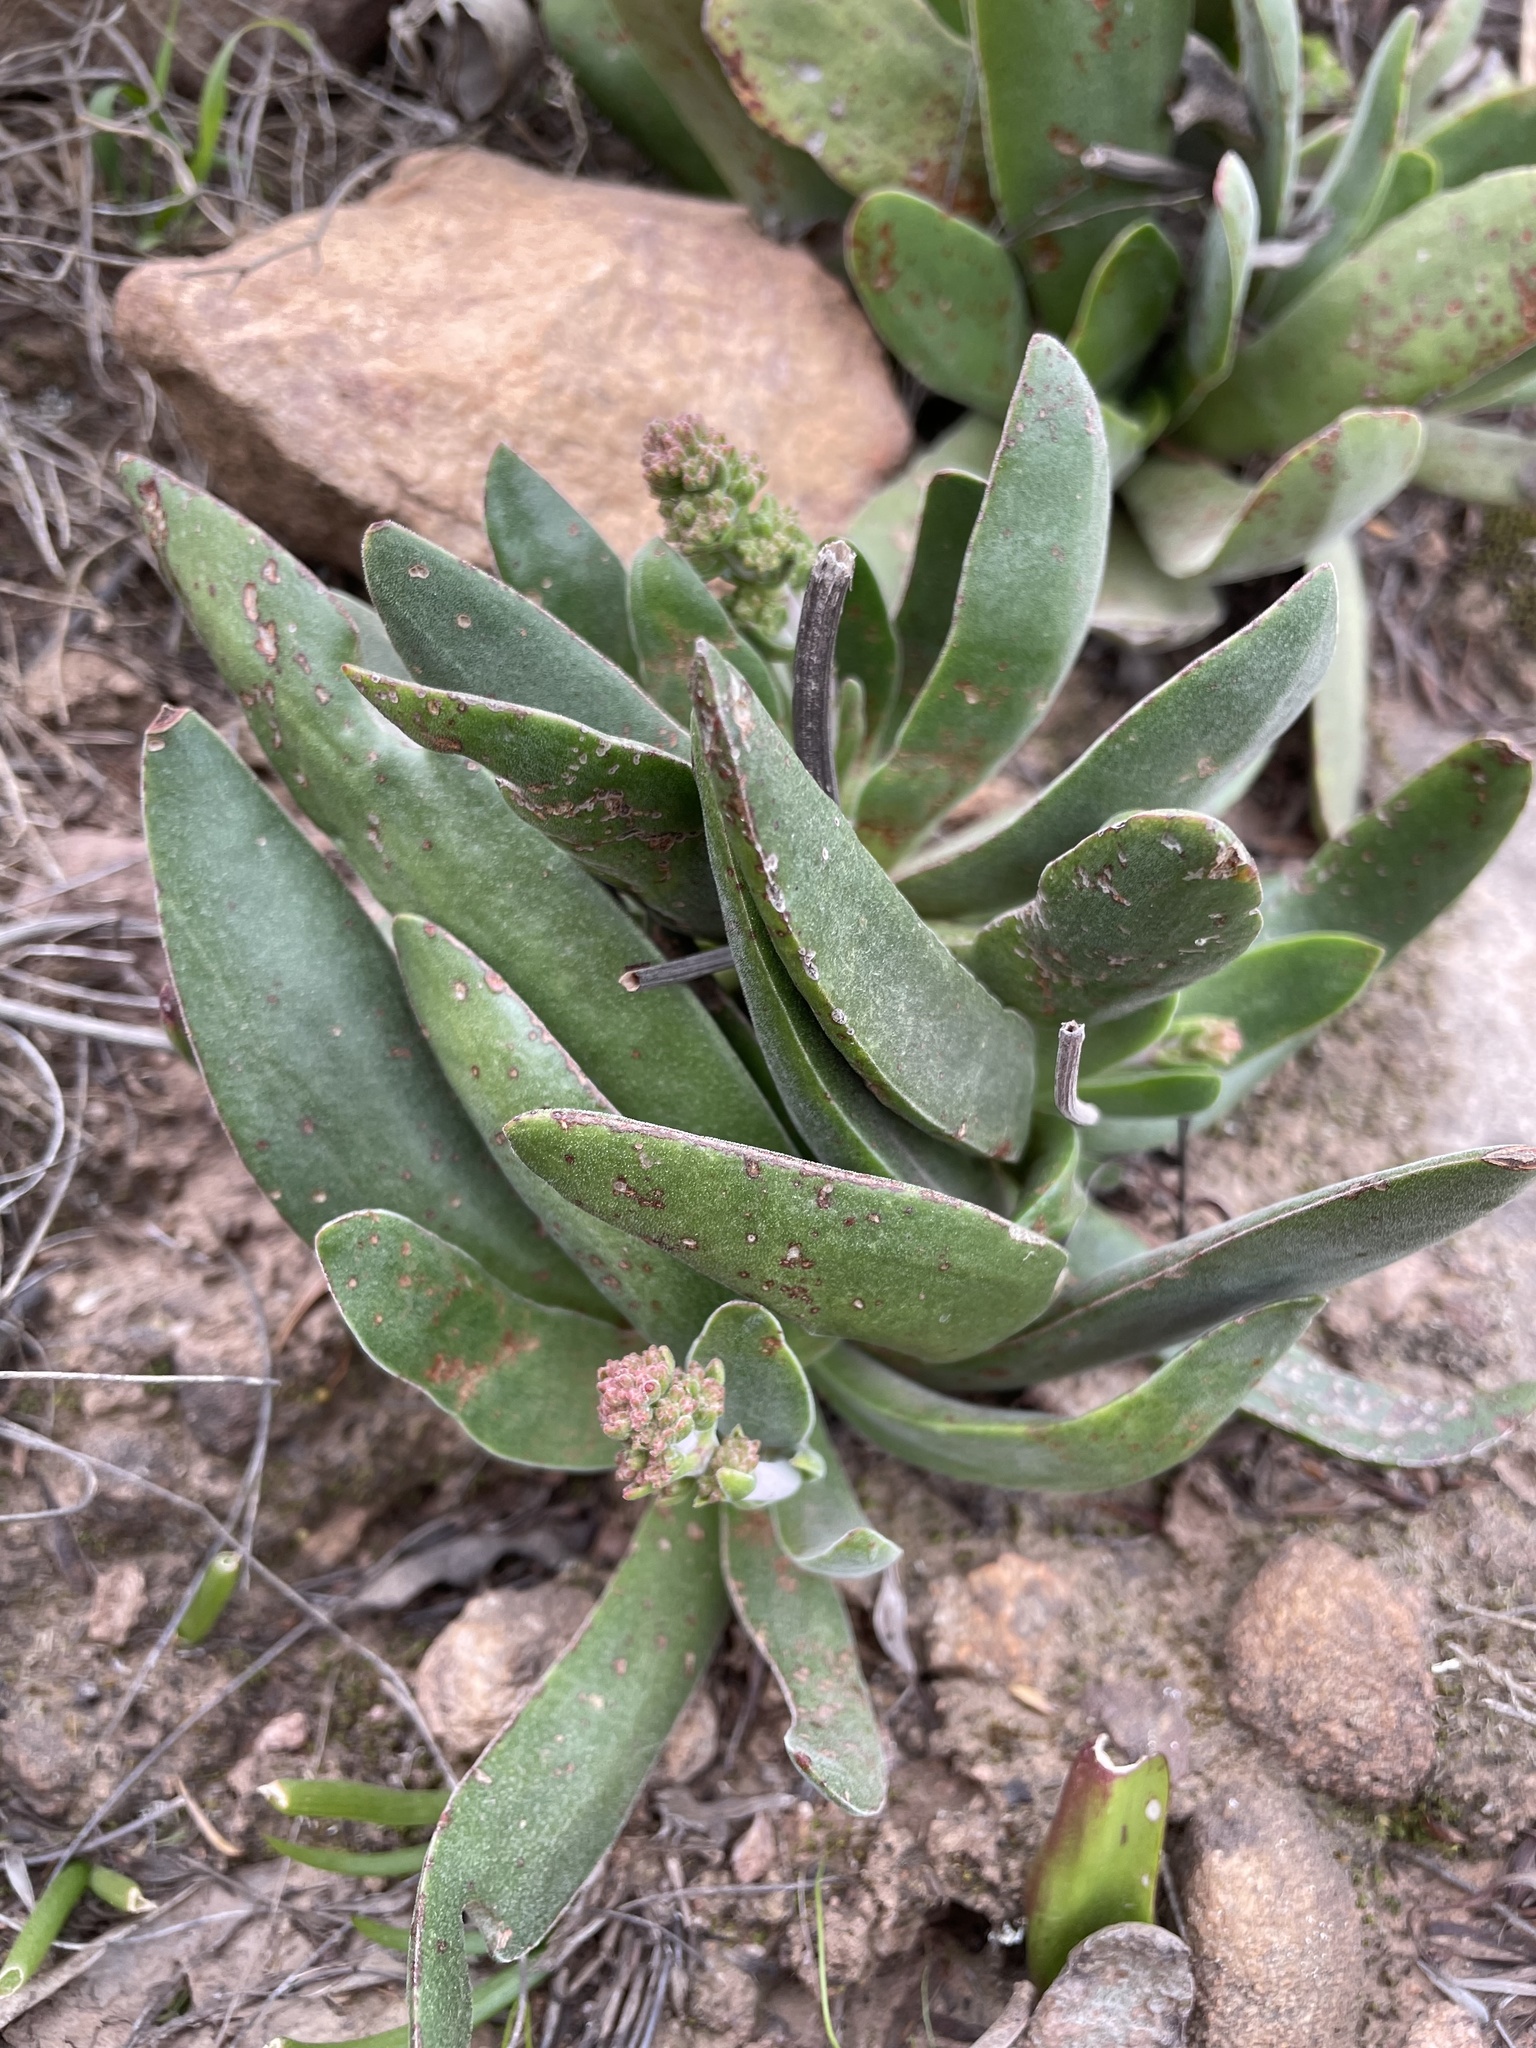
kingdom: Plantae
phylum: Tracheophyta
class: Magnoliopsida
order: Saxifragales
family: Crassulaceae
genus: Crassula
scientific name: Crassula nudicaulis
